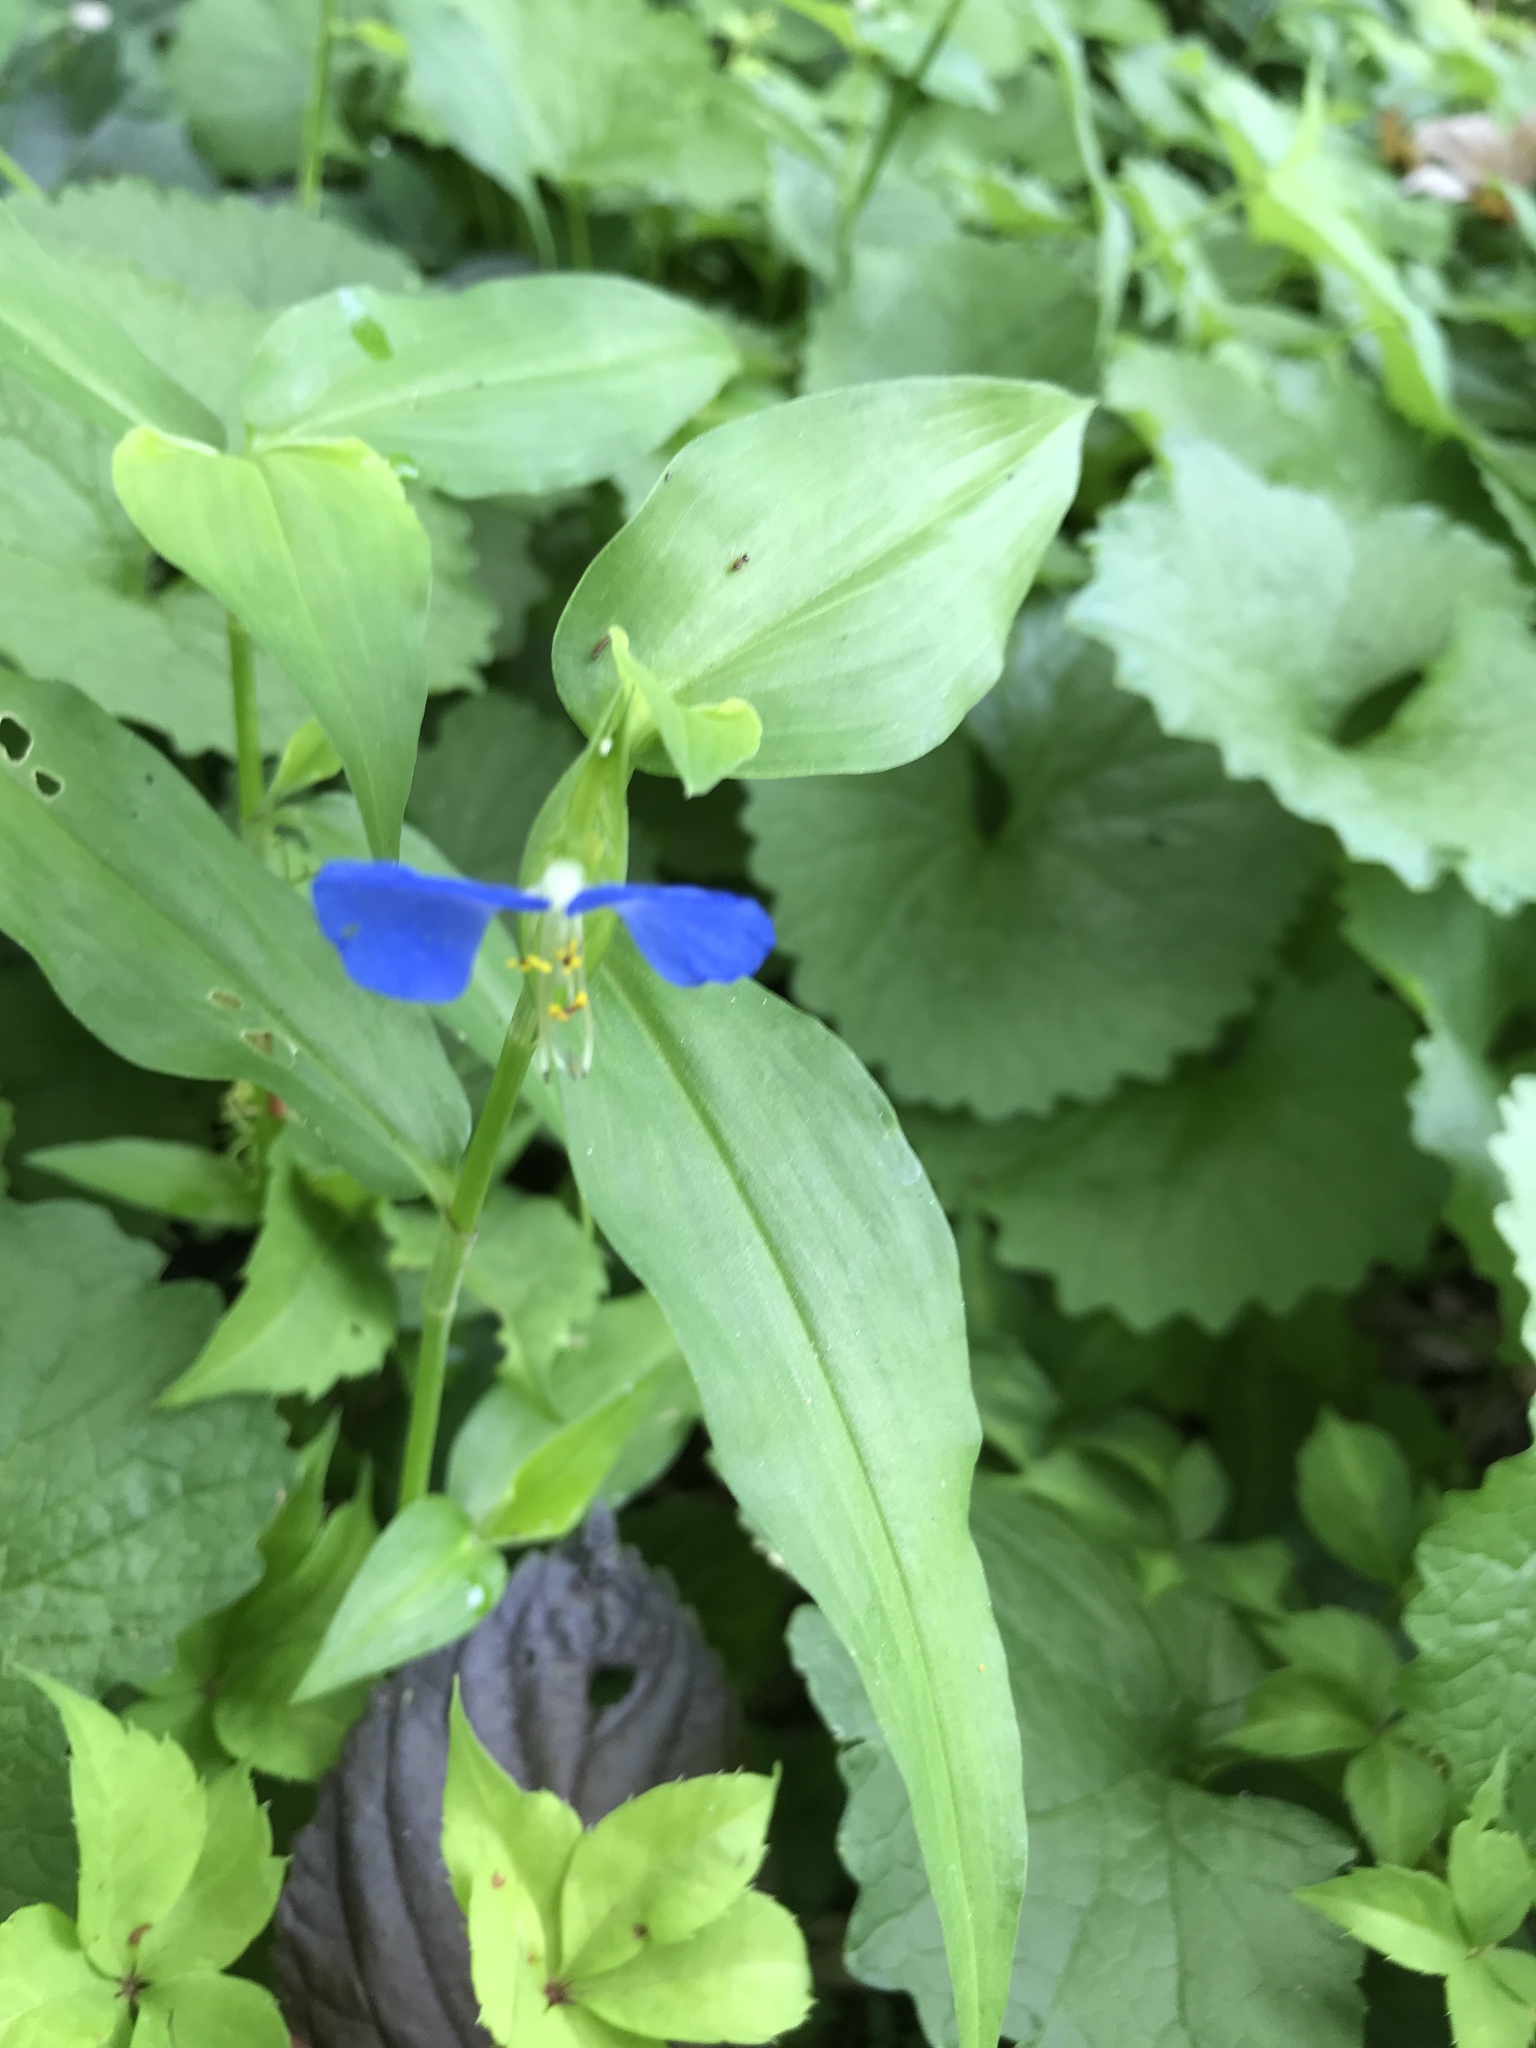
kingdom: Plantae
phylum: Tracheophyta
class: Liliopsida
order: Commelinales
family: Commelinaceae
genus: Commelina
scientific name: Commelina communis
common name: Asiatic dayflower
